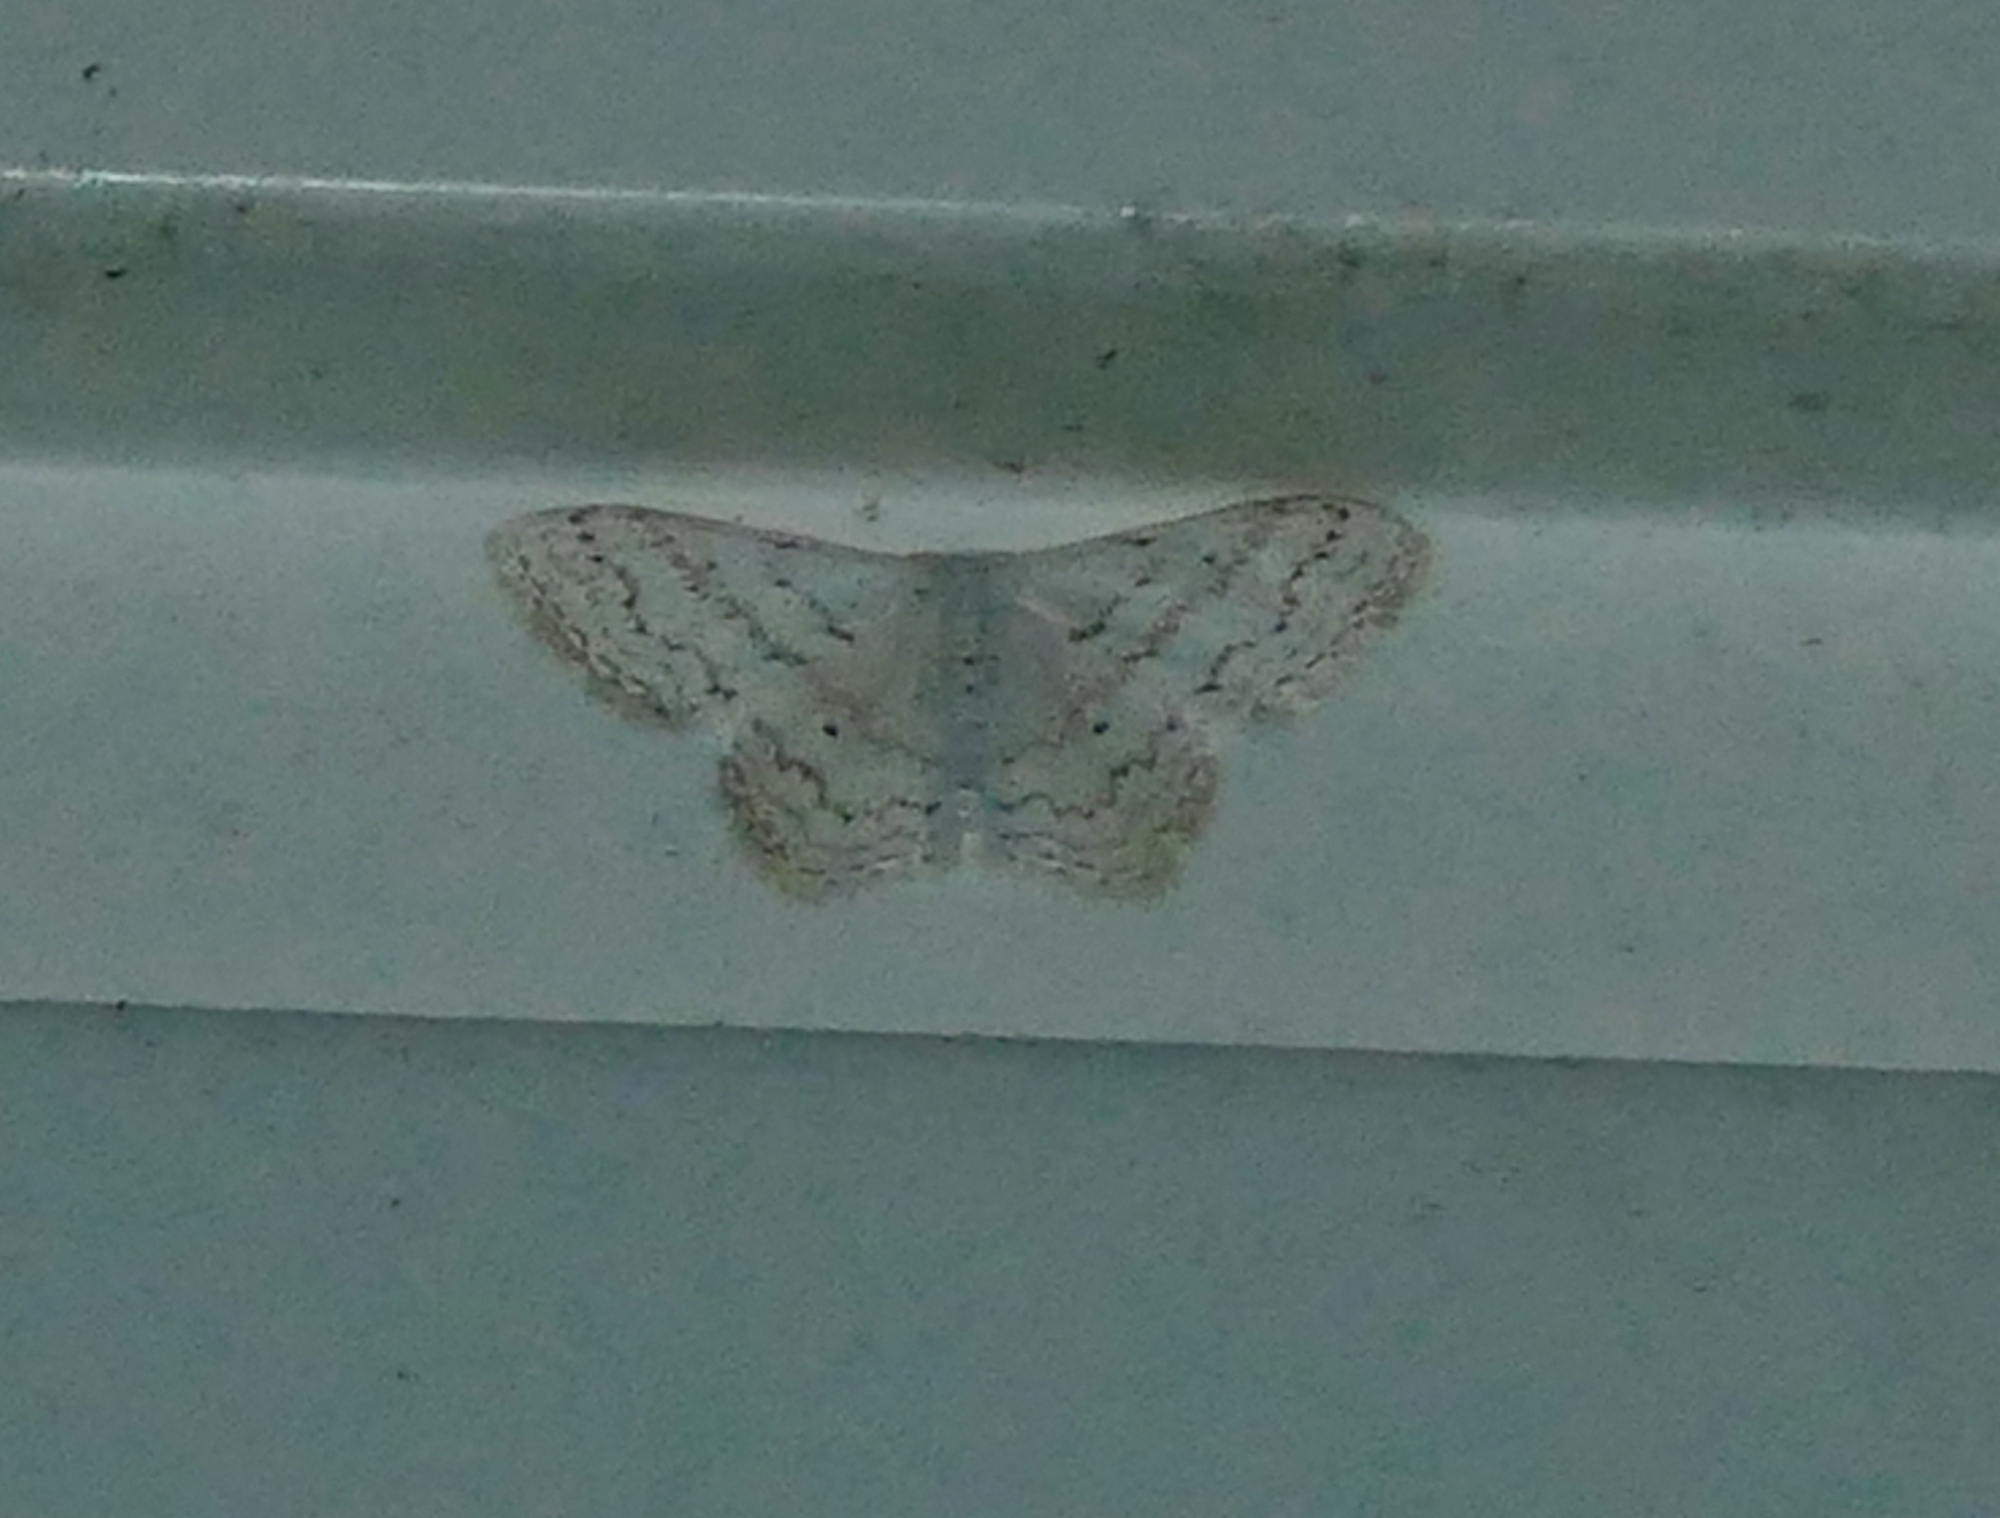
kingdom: Animalia
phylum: Arthropoda
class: Insecta
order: Lepidoptera
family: Geometridae
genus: Idaea
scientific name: Idaea tacturata
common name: Dot-lined wave
